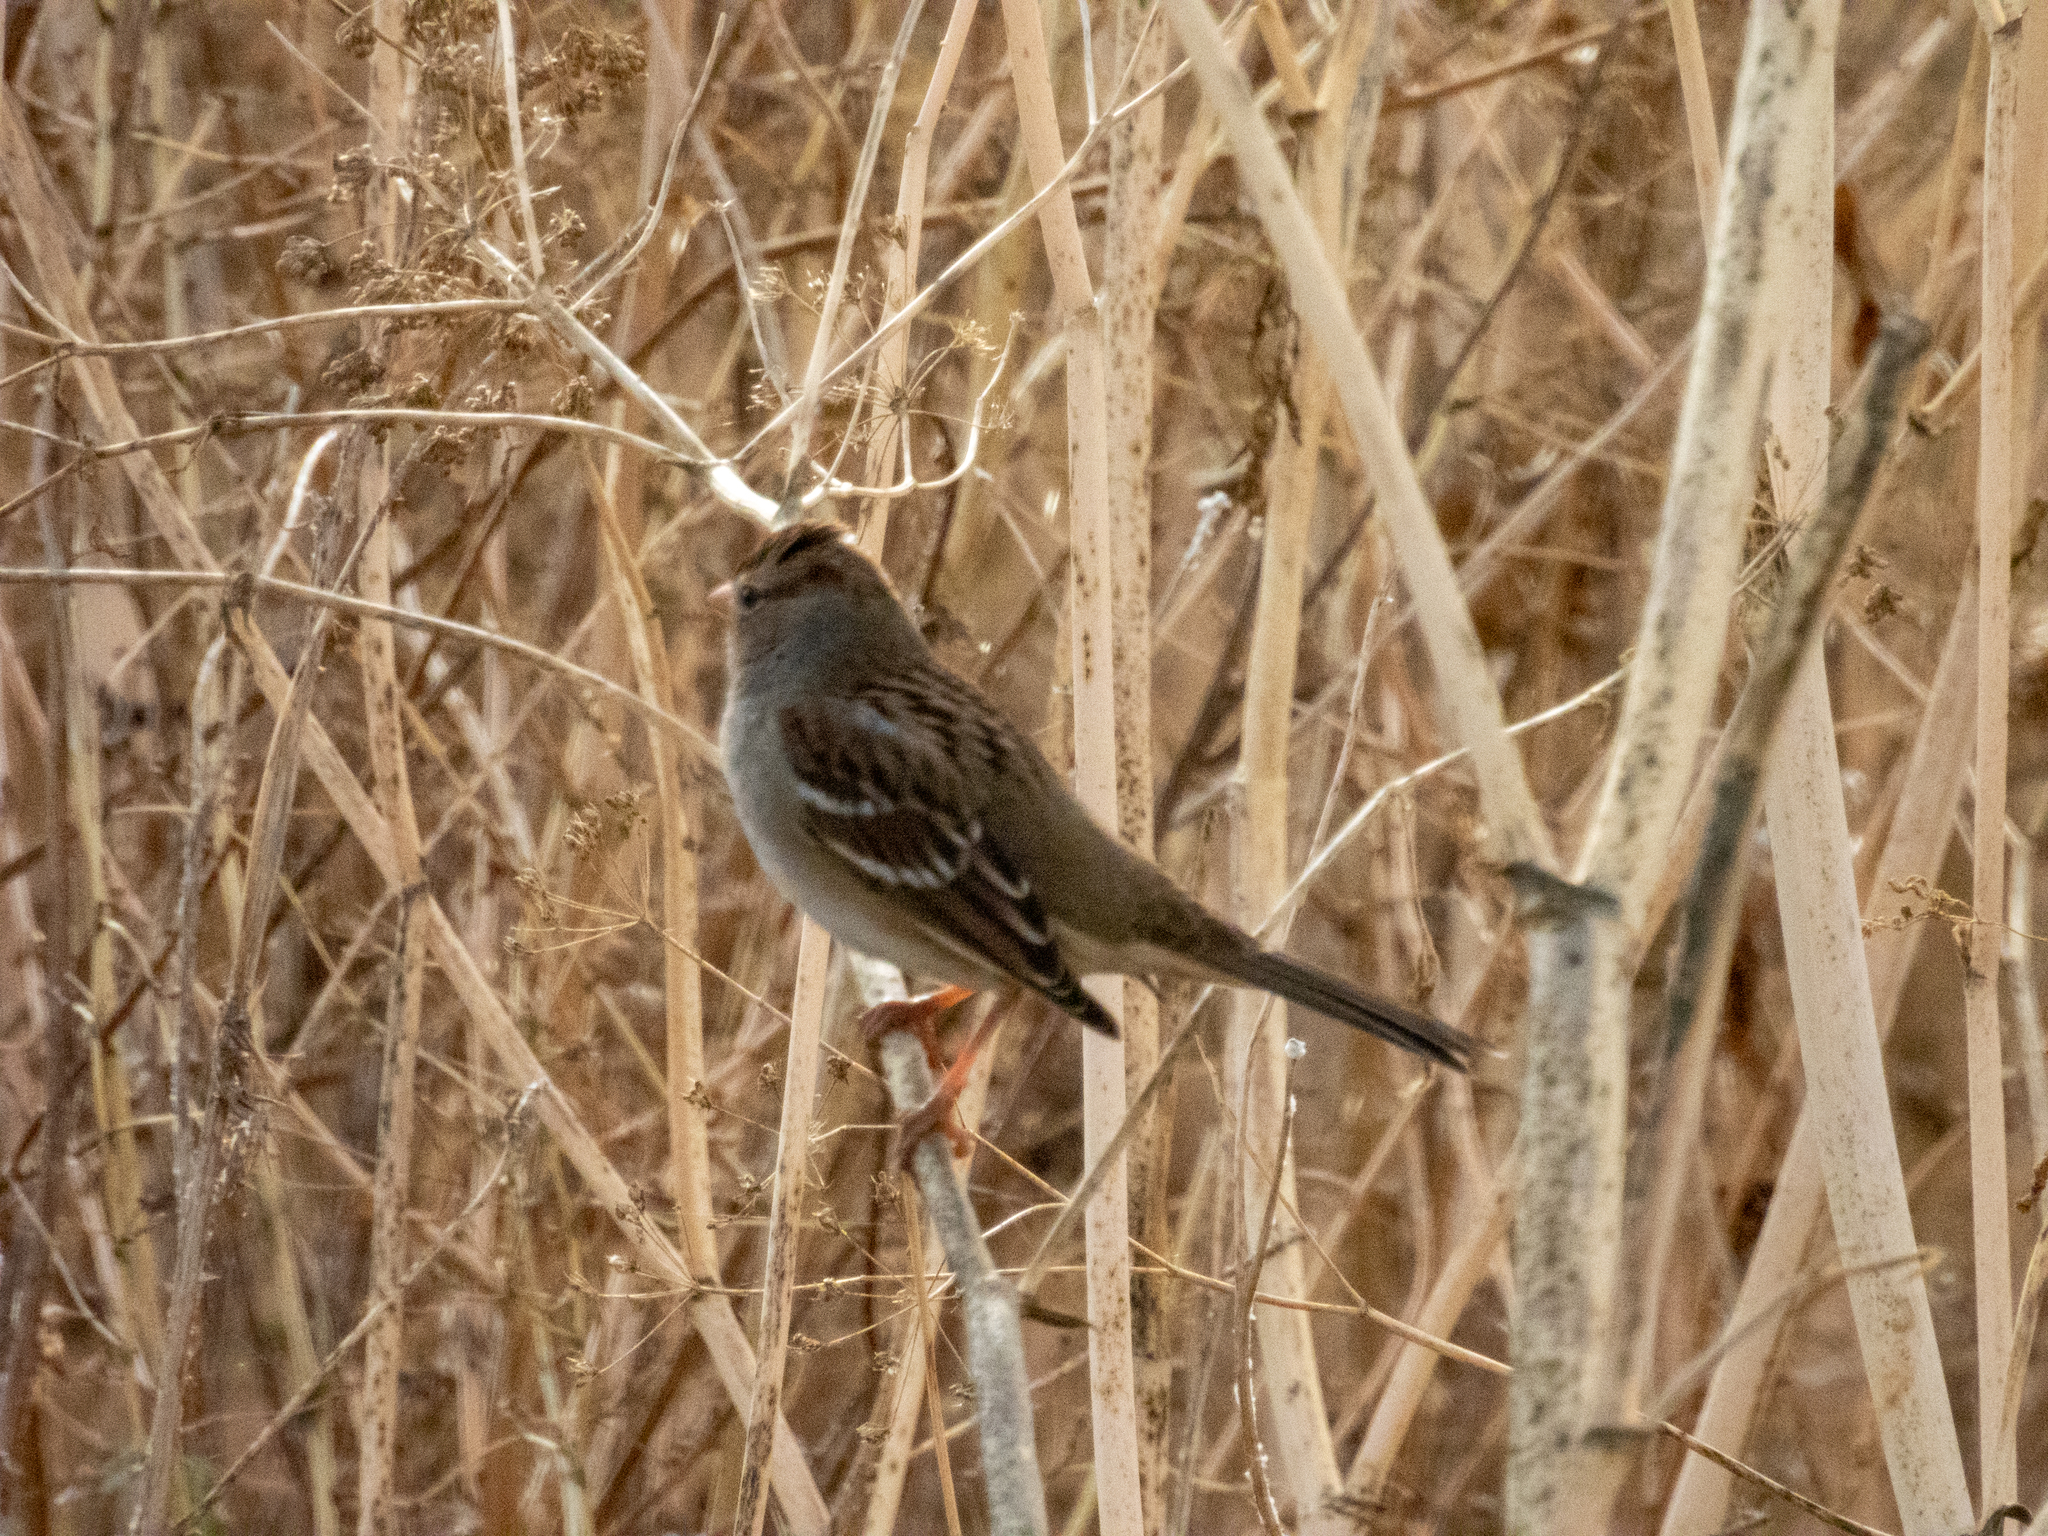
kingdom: Animalia
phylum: Chordata
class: Aves
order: Passeriformes
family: Passerellidae
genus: Zonotrichia
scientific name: Zonotrichia leucophrys
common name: White-crowned sparrow
